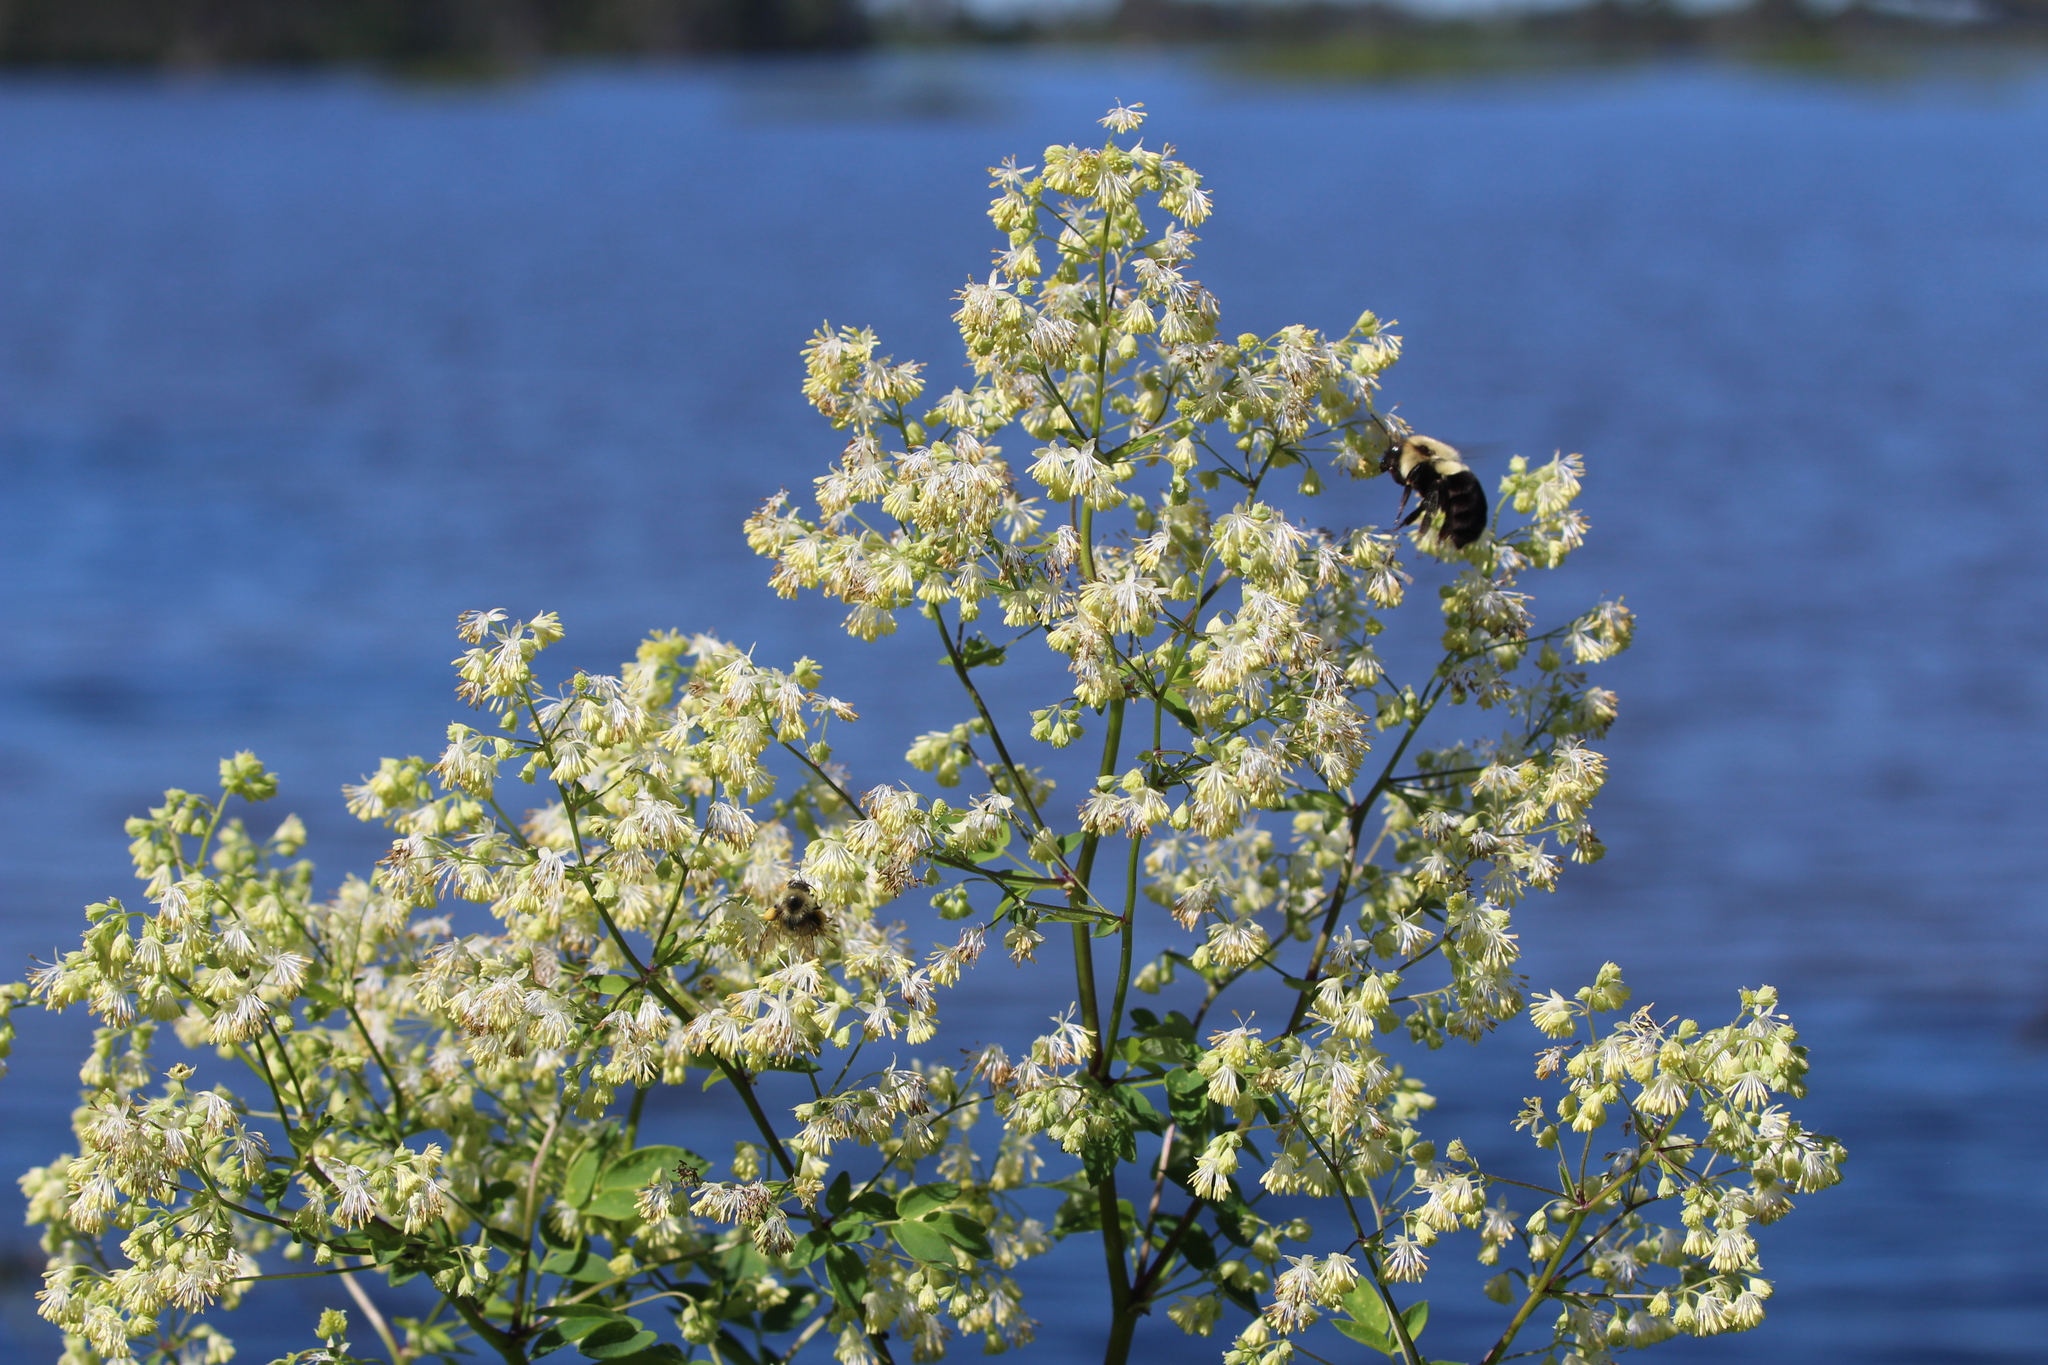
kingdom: Animalia
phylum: Arthropoda
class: Insecta
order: Hymenoptera
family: Apidae
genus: Bombus
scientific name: Bombus impatiens
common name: Common eastern bumble bee
